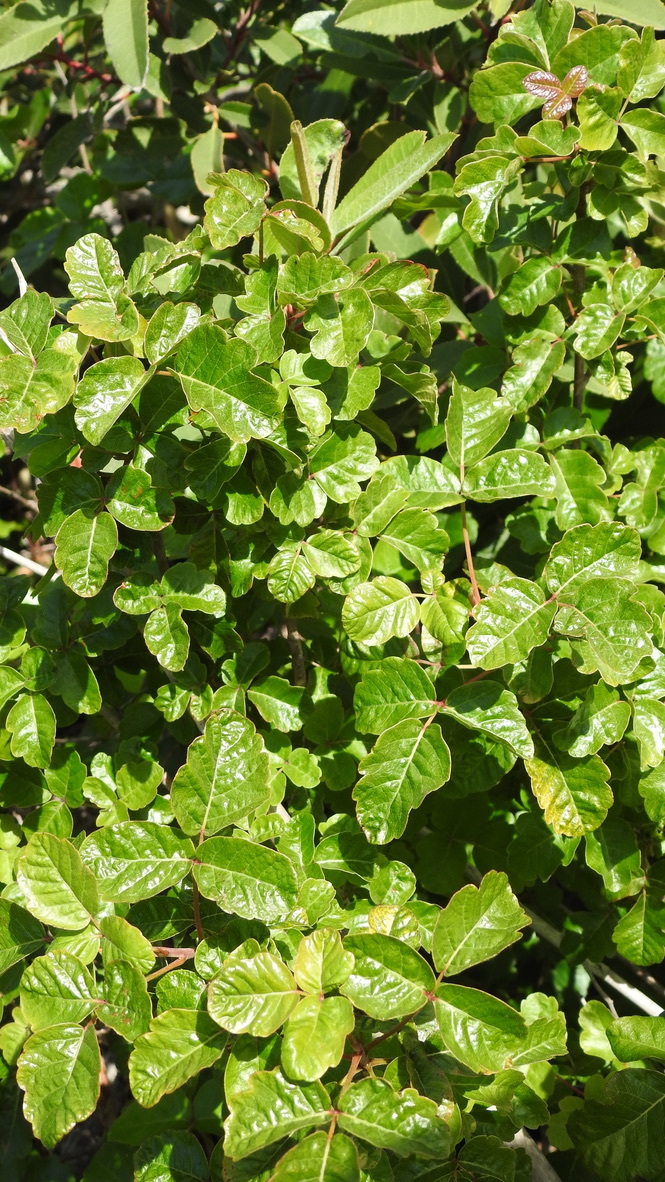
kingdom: Plantae
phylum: Tracheophyta
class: Magnoliopsida
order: Sapindales
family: Anacardiaceae
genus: Toxicodendron
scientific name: Toxicodendron diversilobum
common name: Pacific poison-oak
